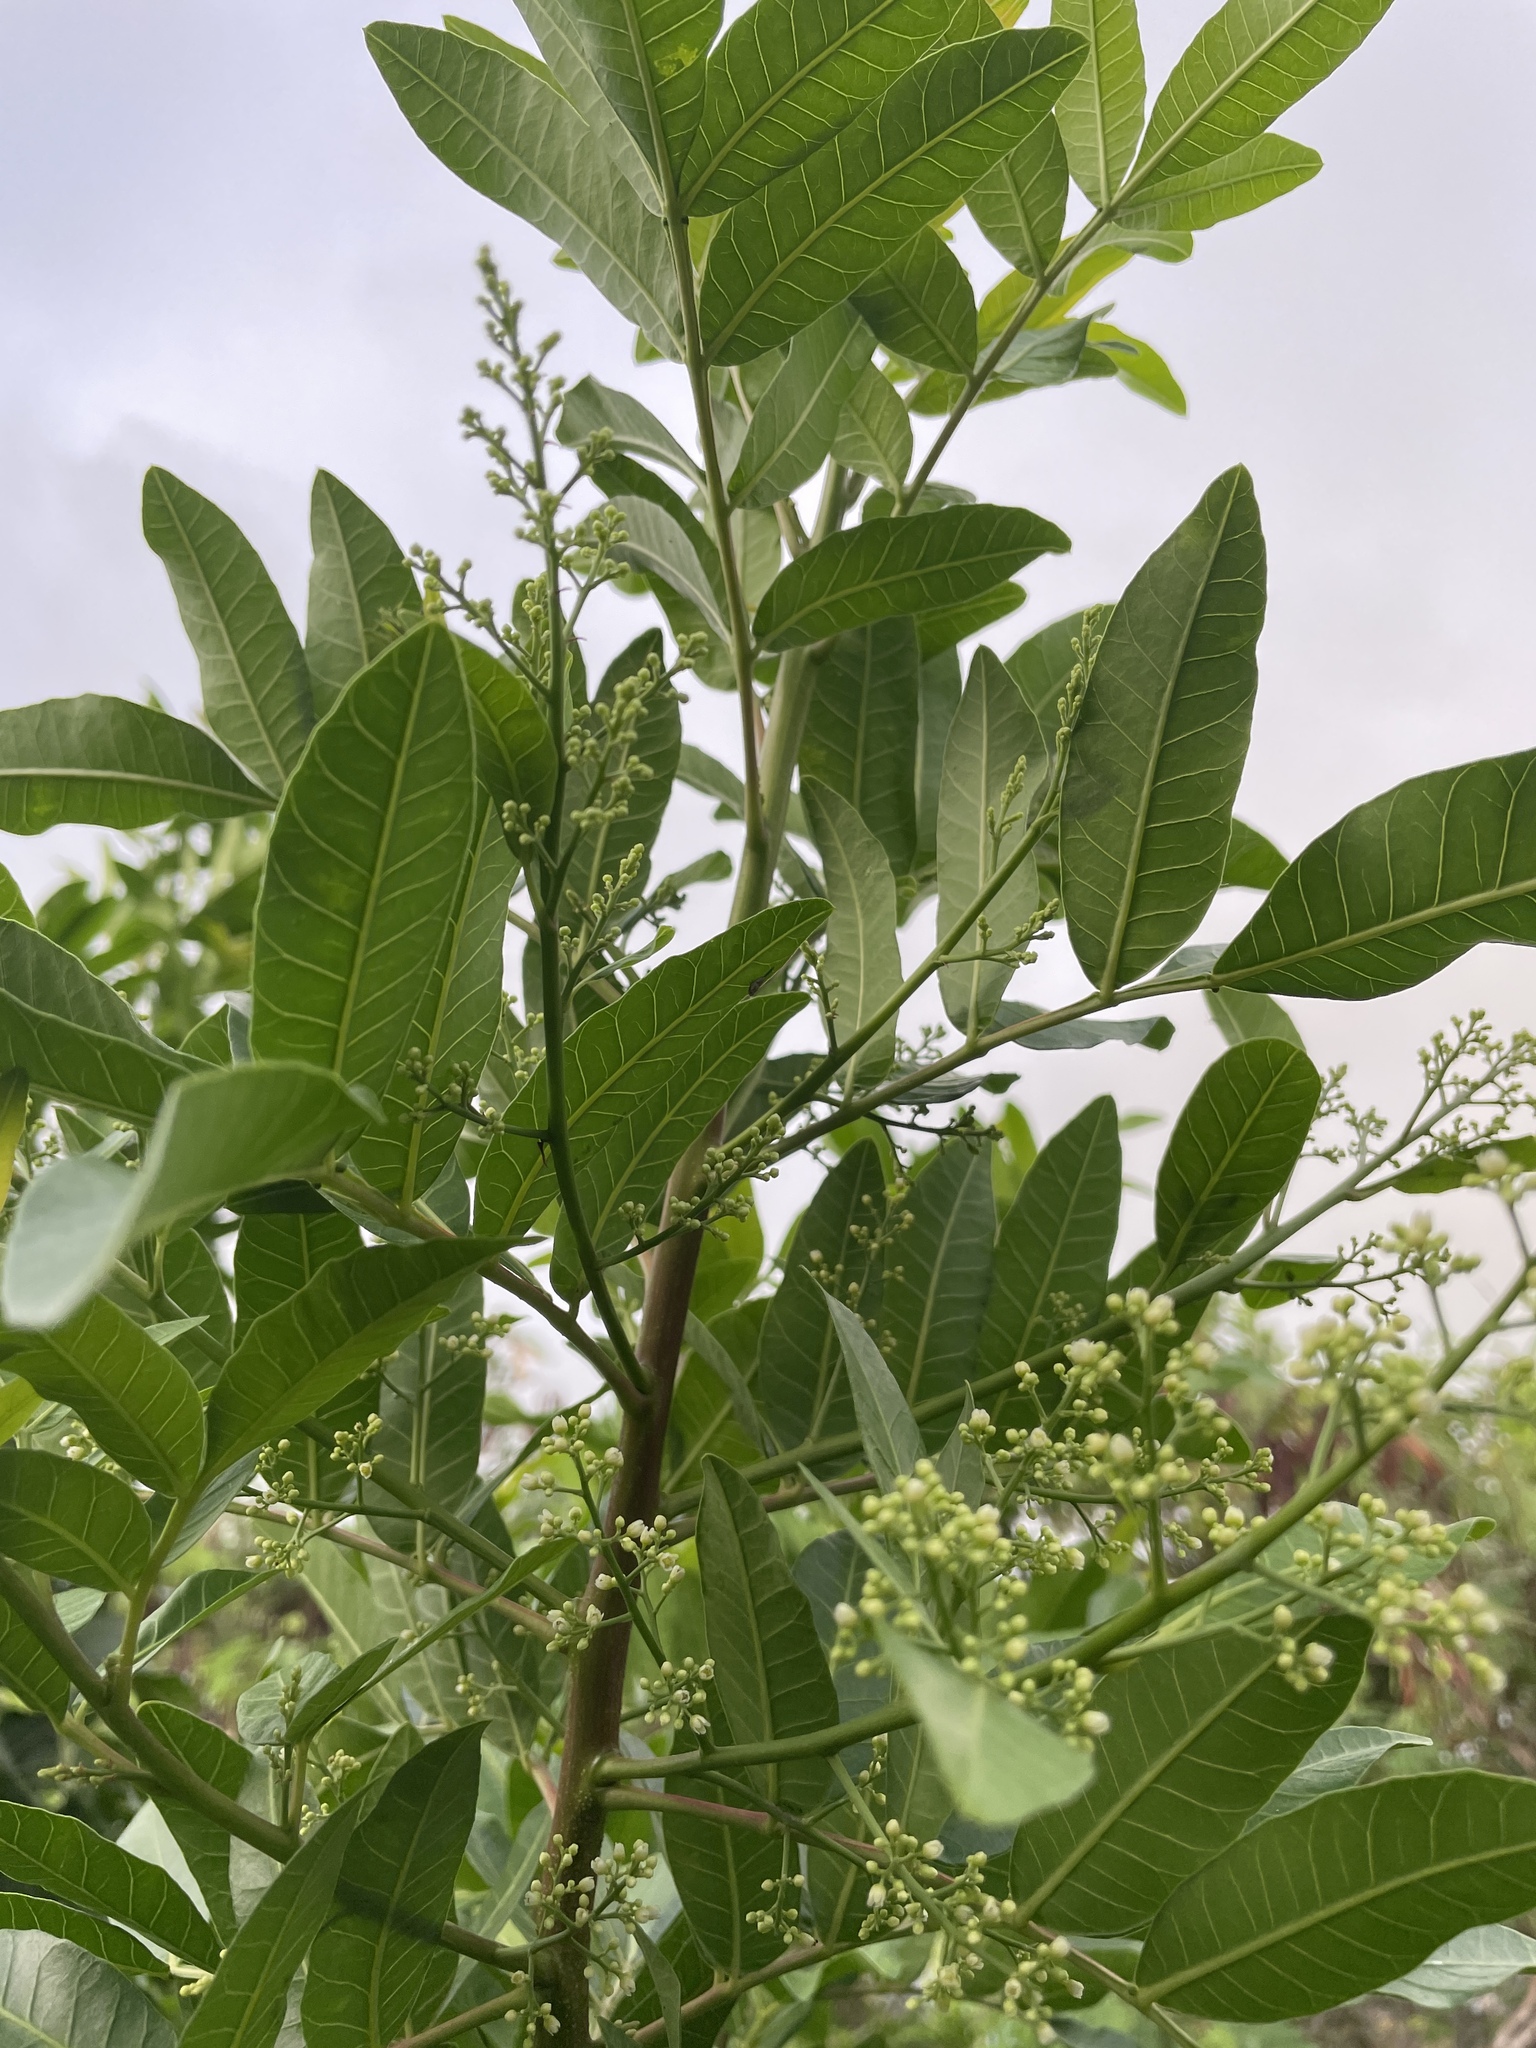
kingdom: Plantae
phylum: Tracheophyta
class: Magnoliopsida
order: Sapindales
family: Anacardiaceae
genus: Schinus
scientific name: Schinus terebinthifolia
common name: Brazilian peppertree
